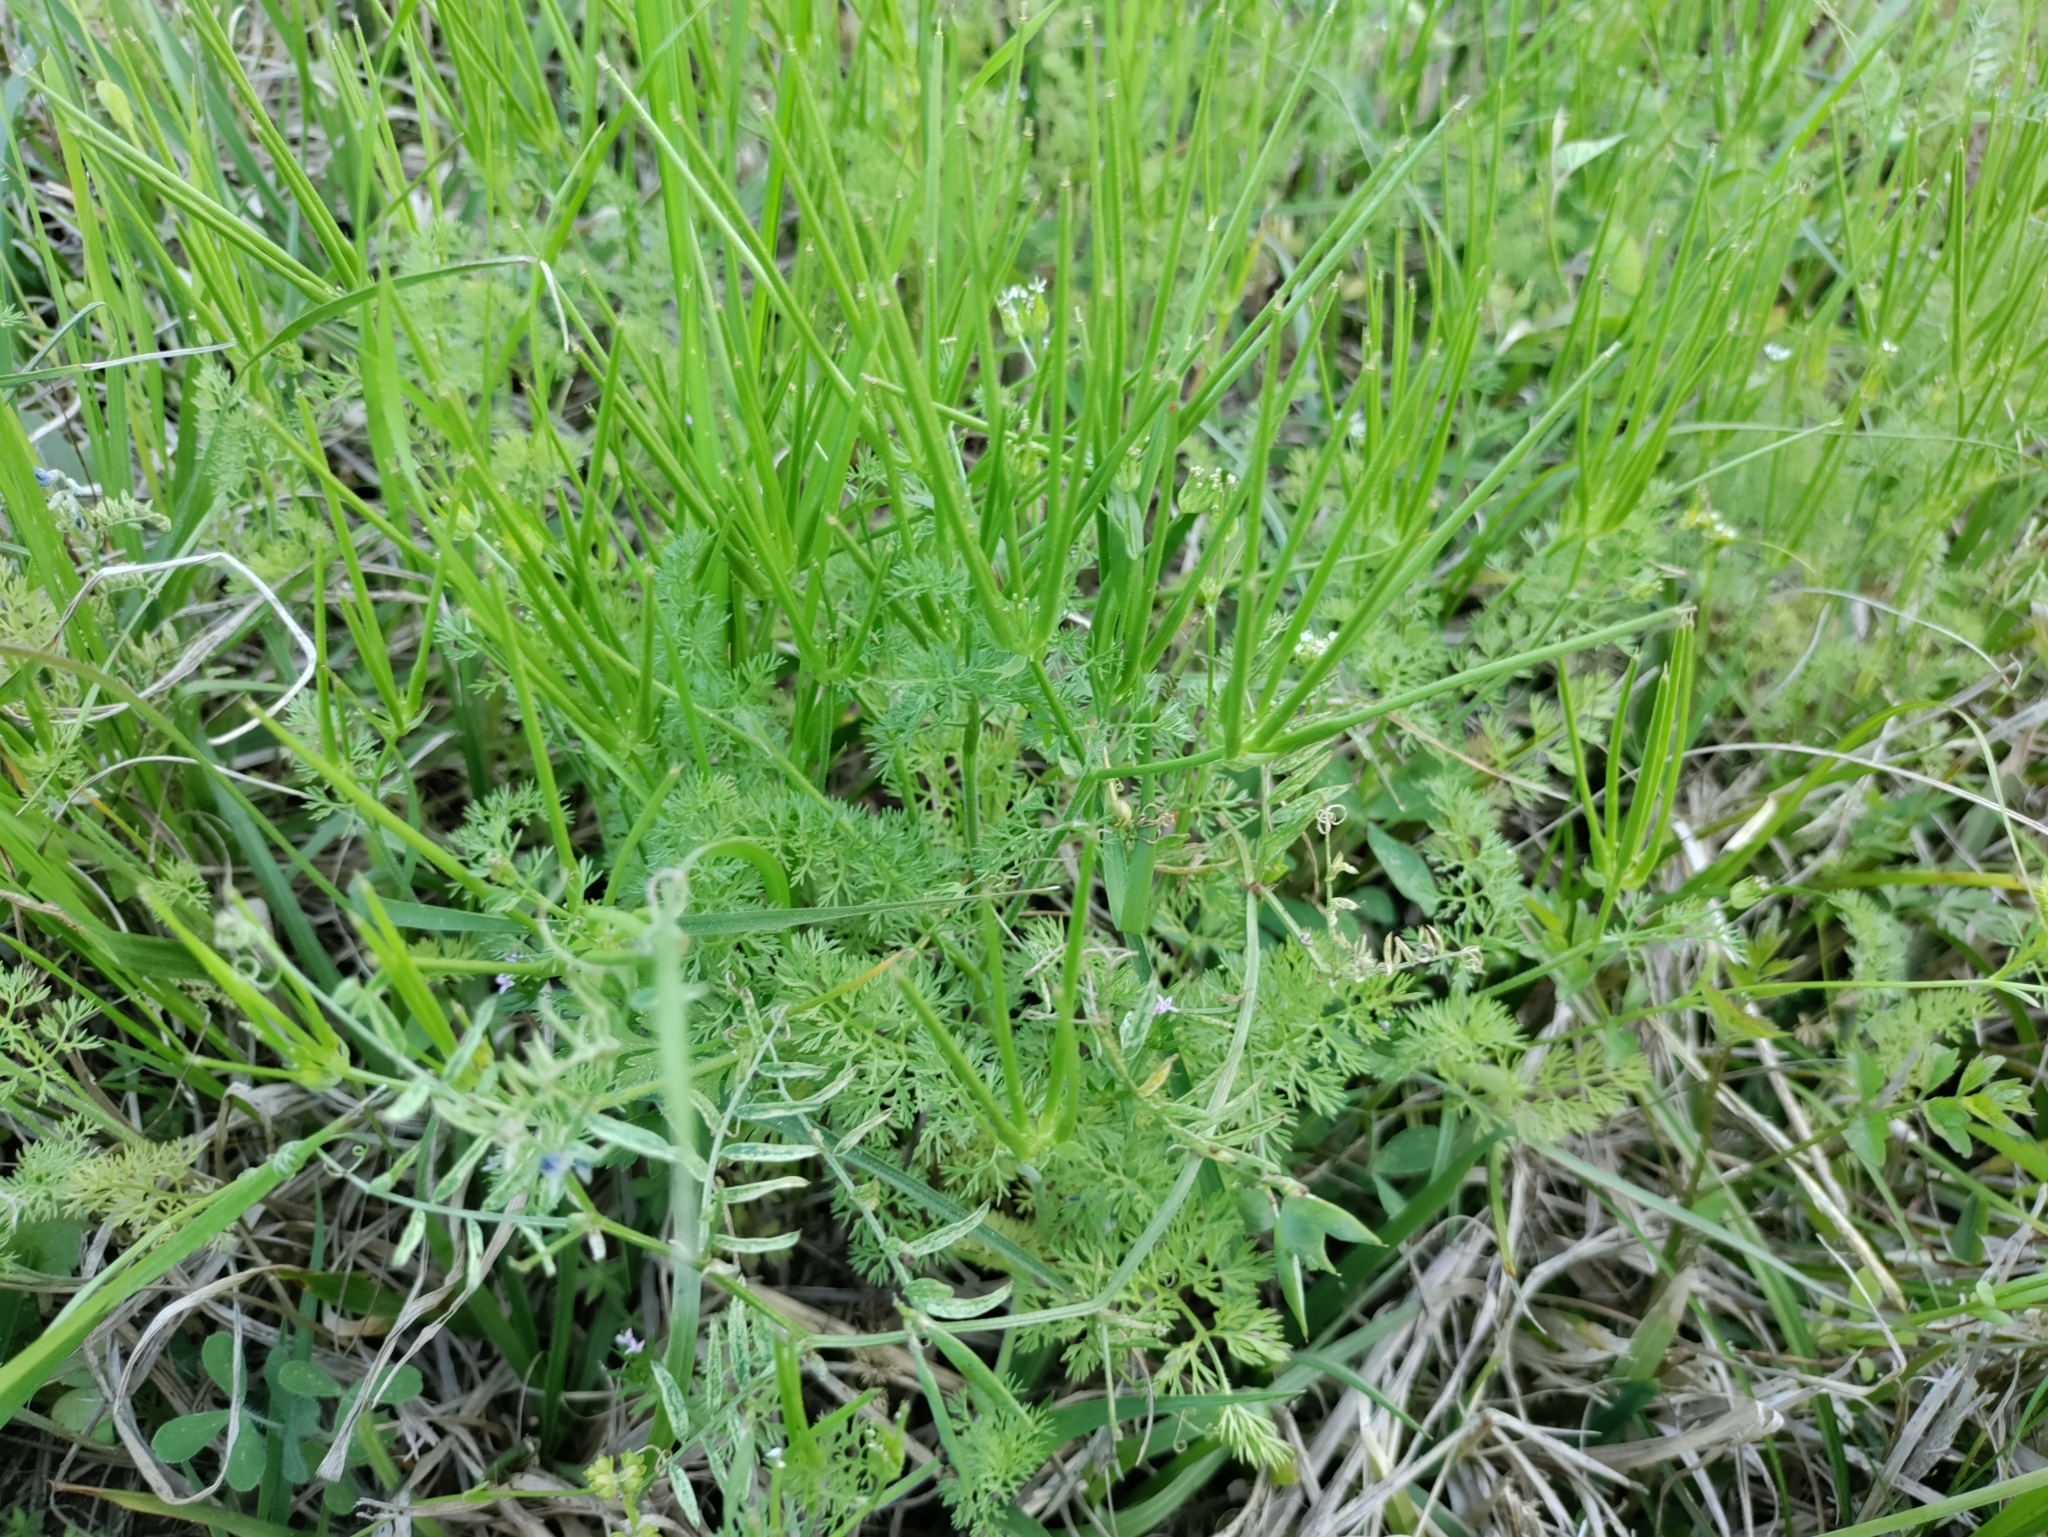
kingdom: Plantae
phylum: Tracheophyta
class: Magnoliopsida
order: Apiales
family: Apiaceae
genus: Scandix
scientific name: Scandix pecten-veneris
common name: Shepherd's-needle
